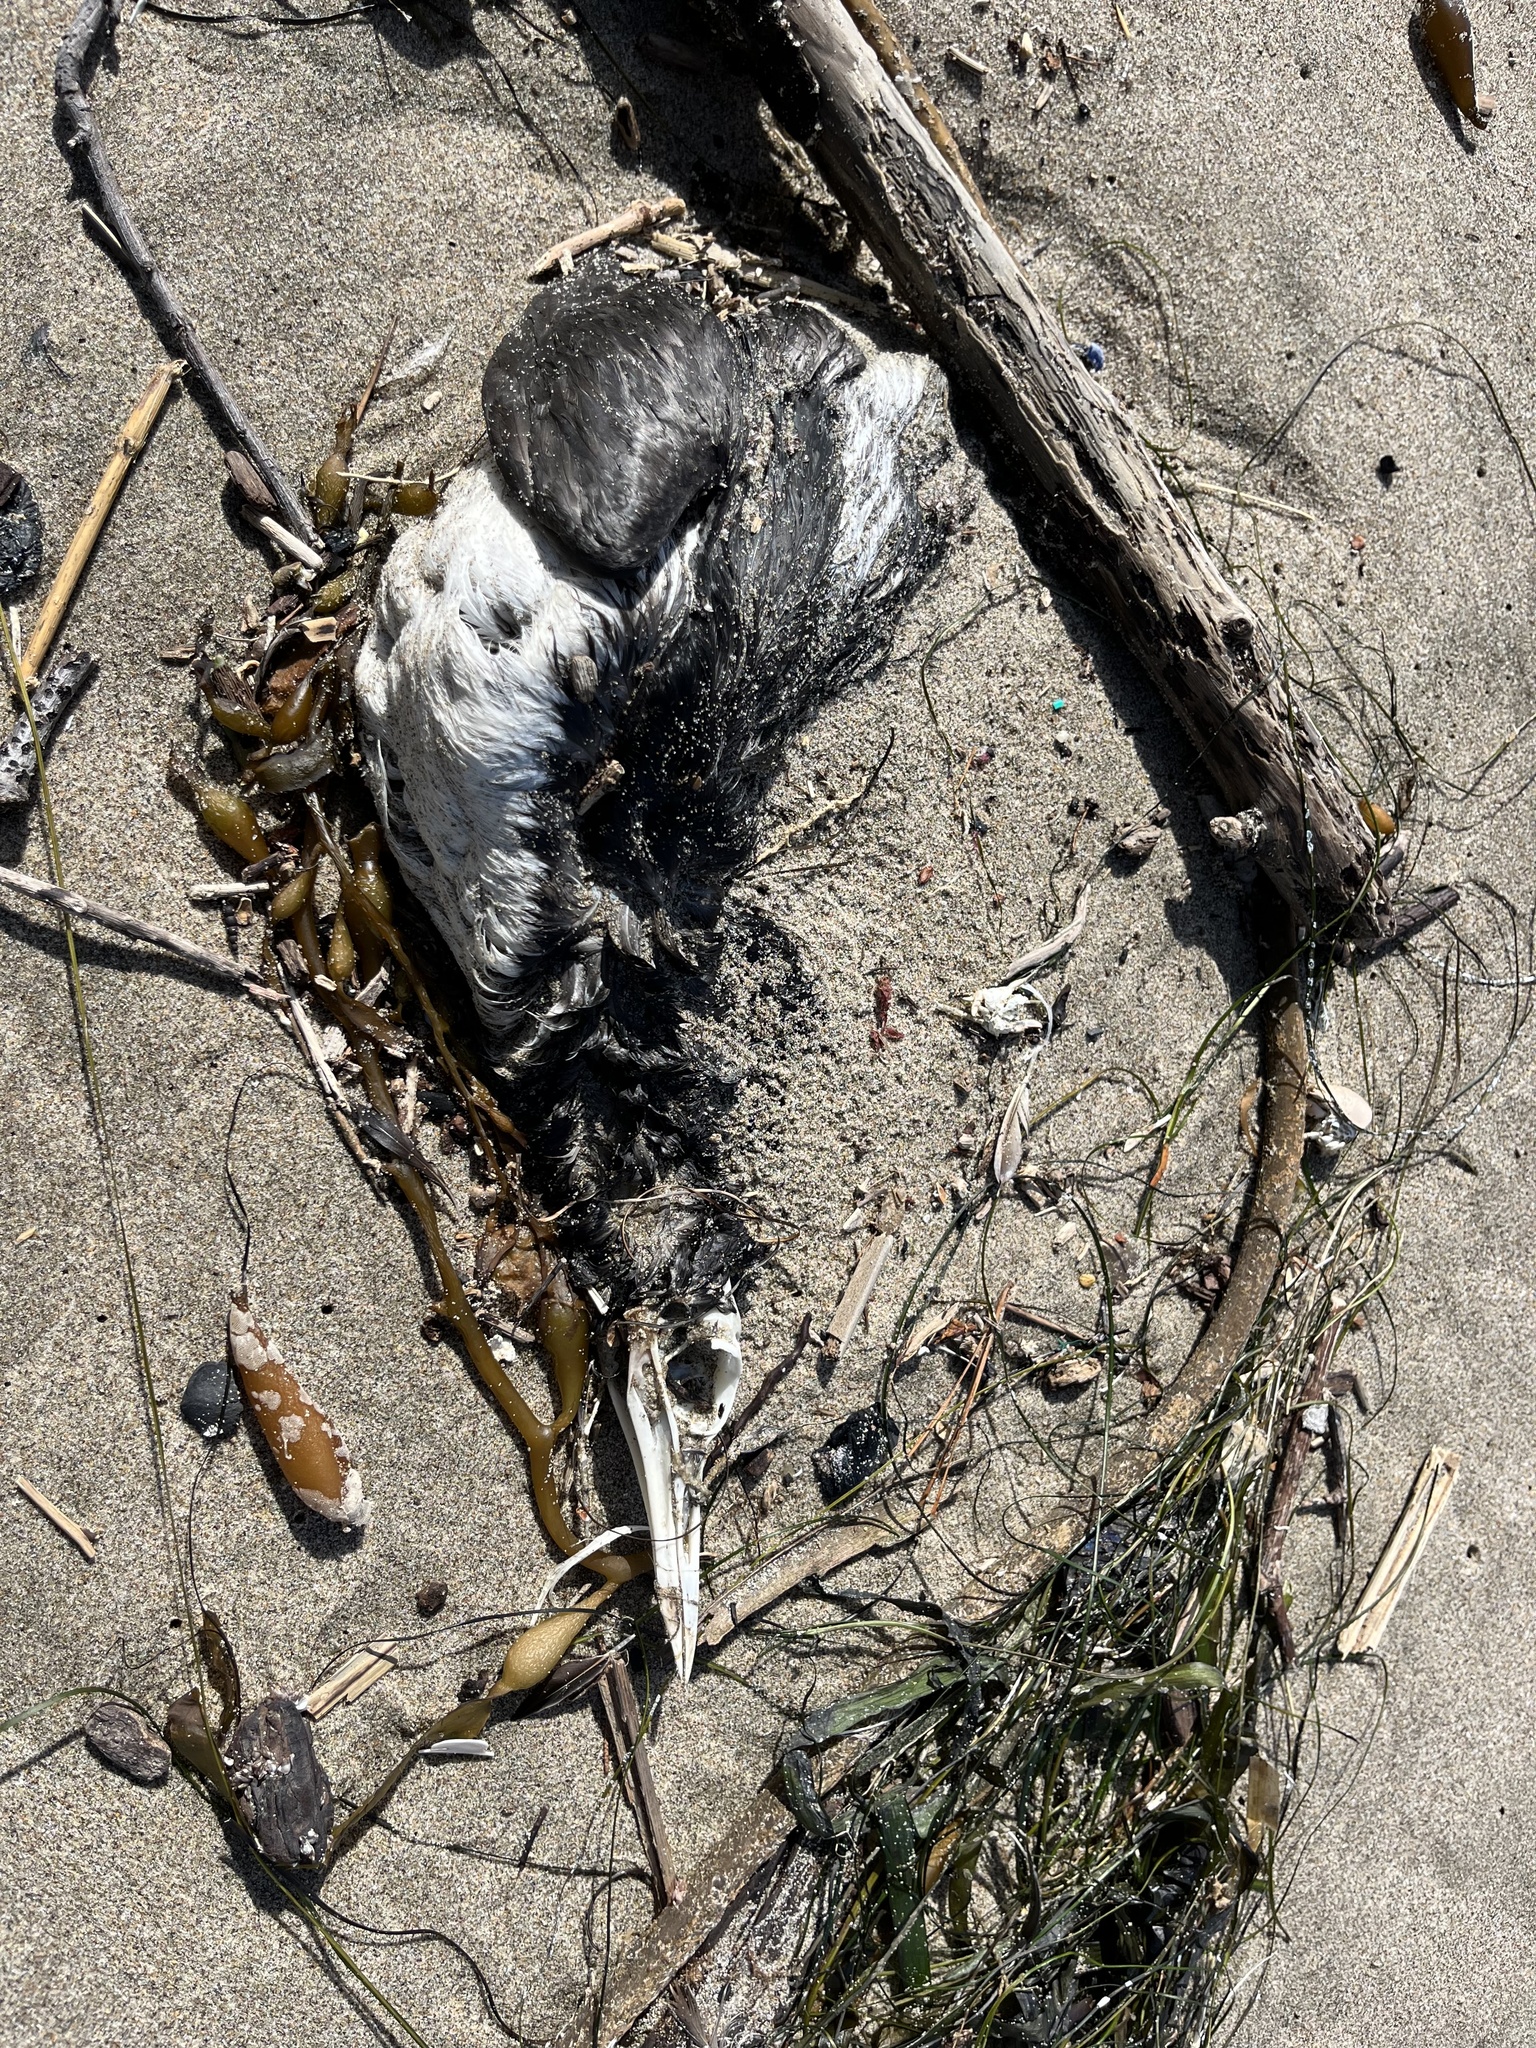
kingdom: Animalia
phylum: Chordata
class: Aves
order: Charadriiformes
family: Alcidae
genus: Uria
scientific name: Uria aalge
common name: Common murre
